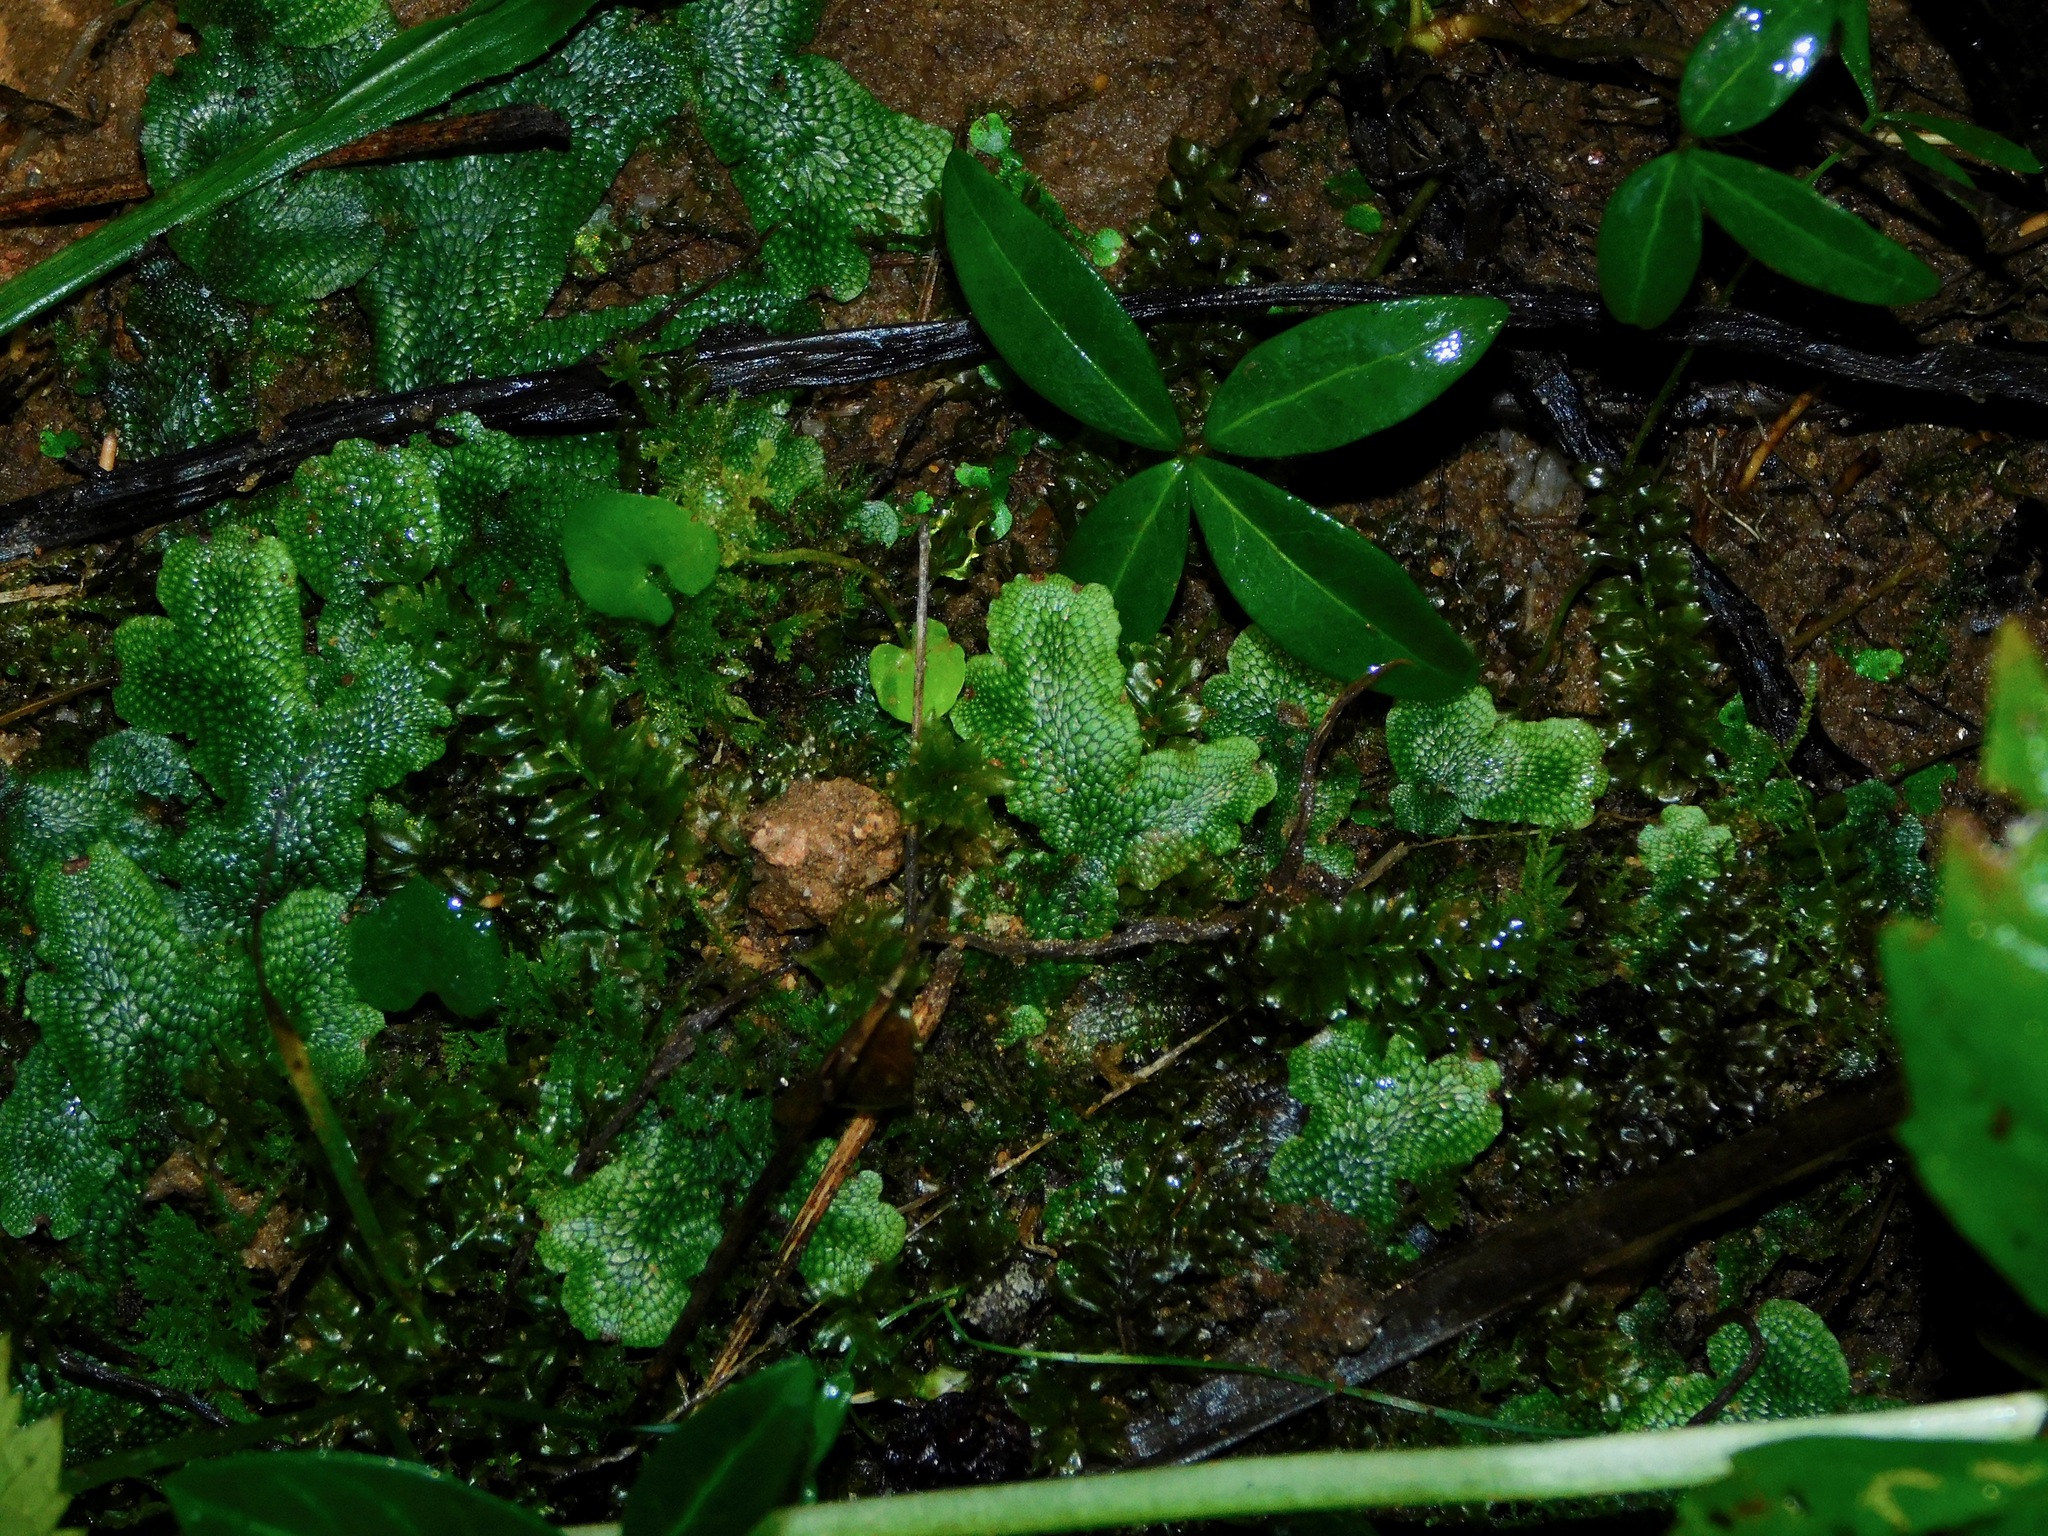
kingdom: Plantae
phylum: Marchantiophyta
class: Marchantiopsida
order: Marchantiales
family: Conocephalaceae
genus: Conocephalum
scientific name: Conocephalum salebrosum
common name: Cat-tongue liverwort
